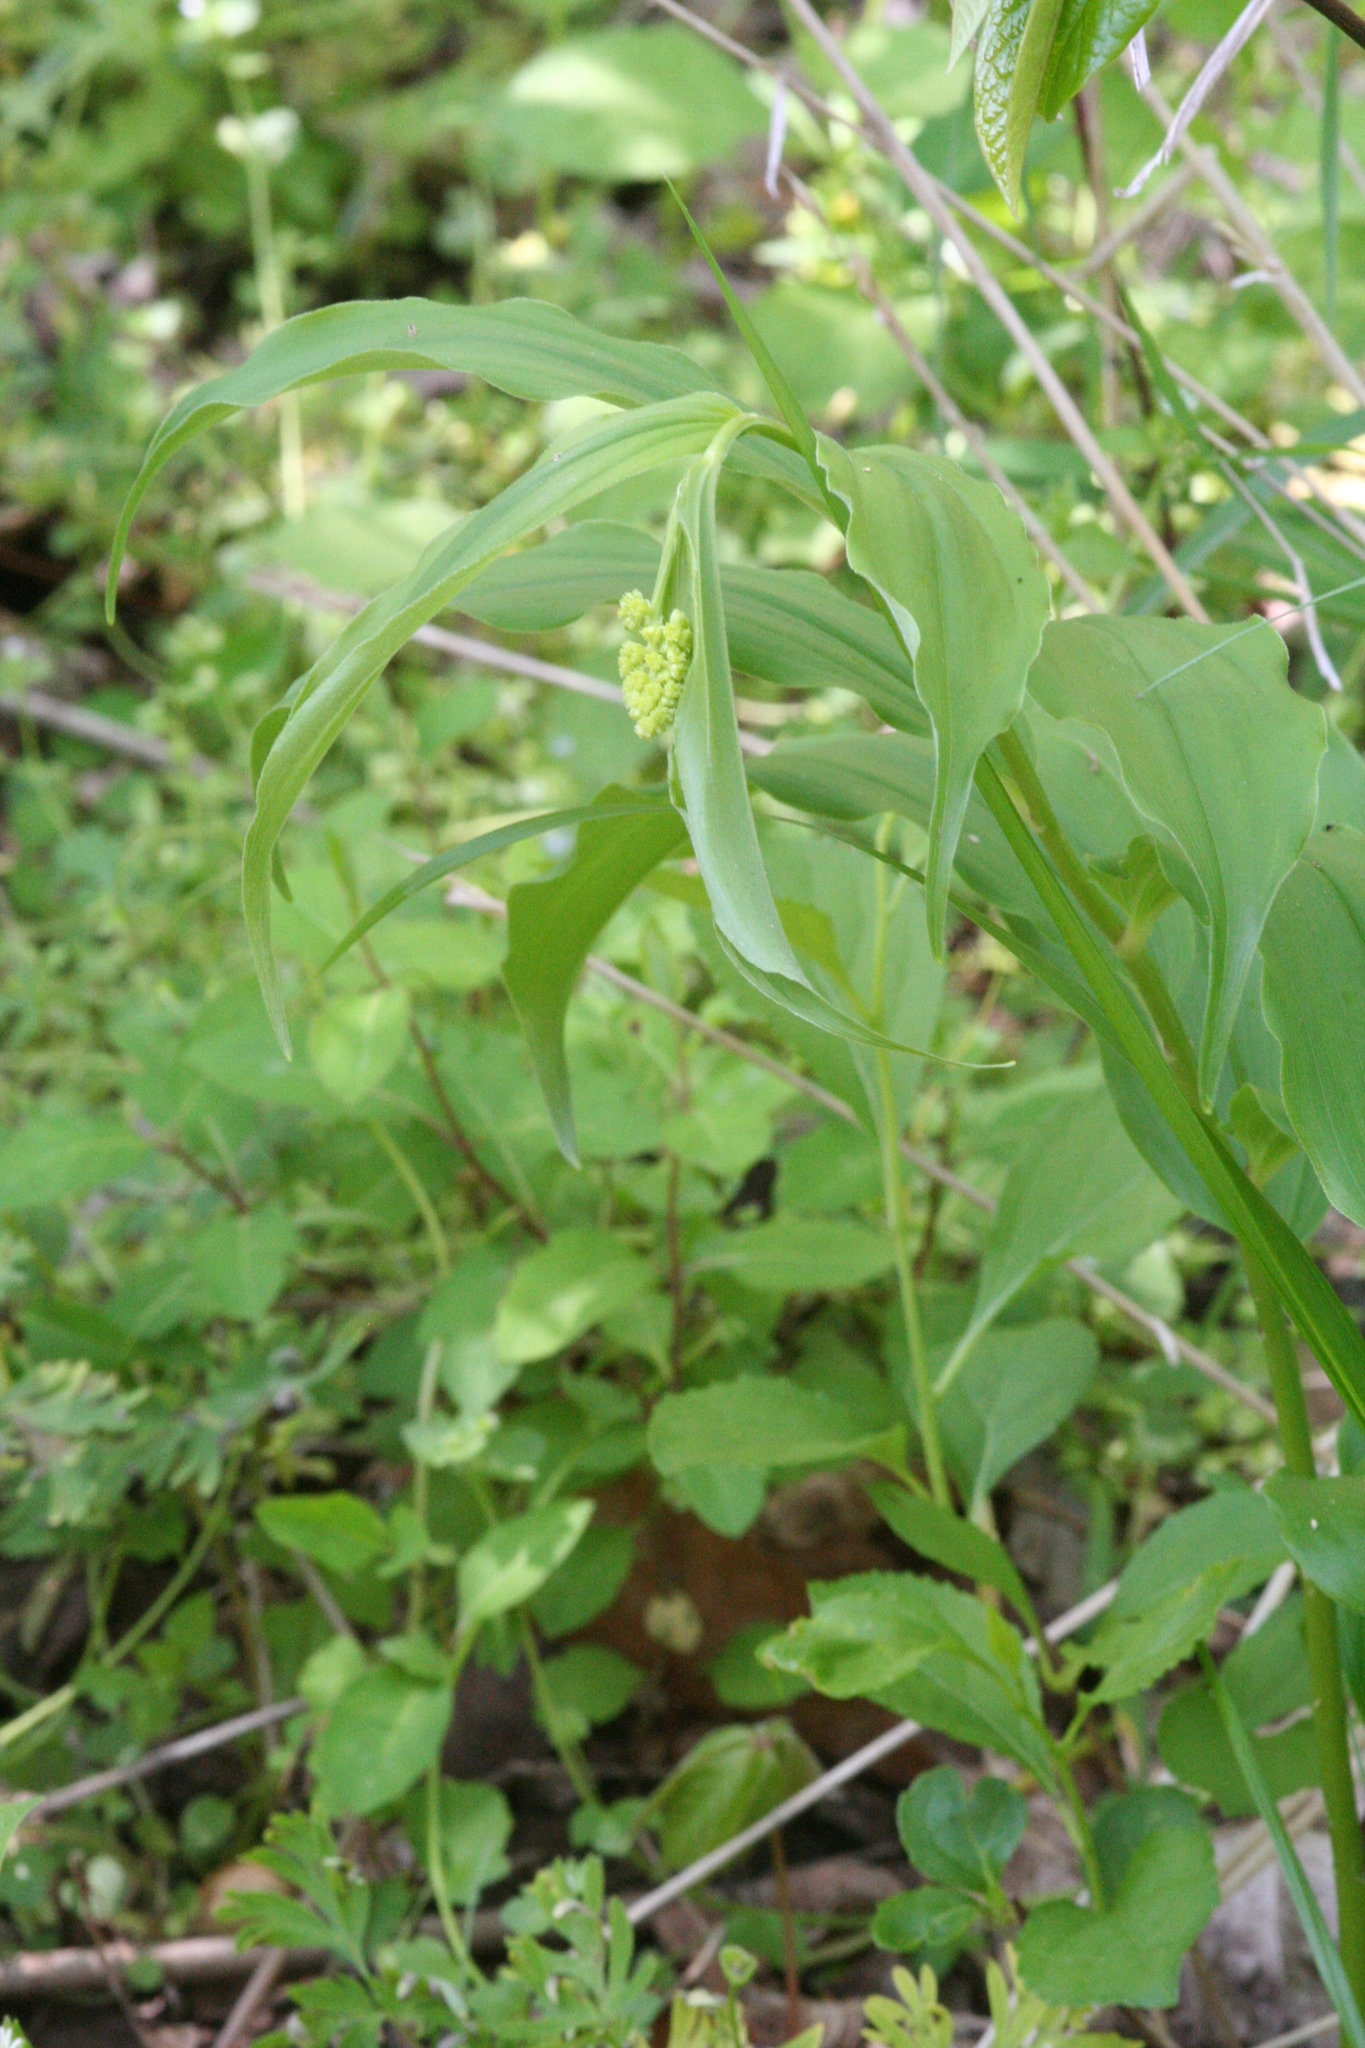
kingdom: Plantae
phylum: Tracheophyta
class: Liliopsida
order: Asparagales
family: Asparagaceae
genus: Maianthemum
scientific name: Maianthemum racemosum
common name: False spikenard
